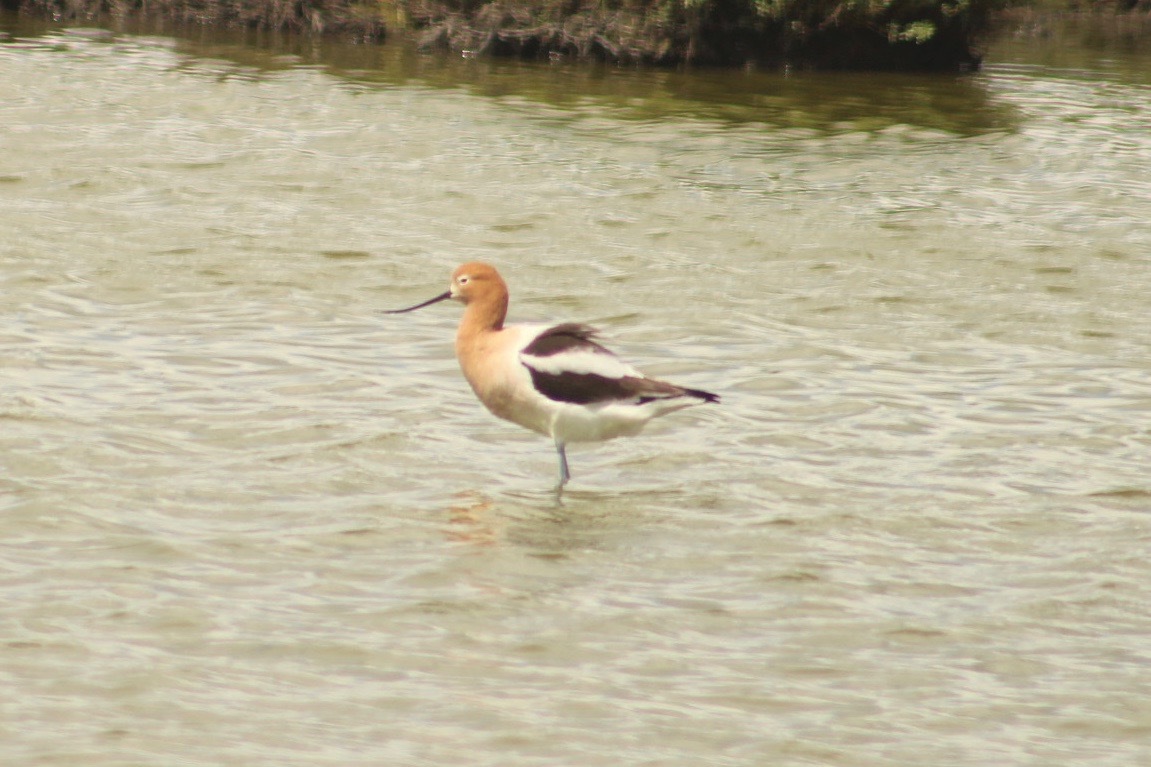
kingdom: Animalia
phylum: Chordata
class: Aves
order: Charadriiformes
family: Recurvirostridae
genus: Recurvirostra
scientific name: Recurvirostra americana
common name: American avocet
